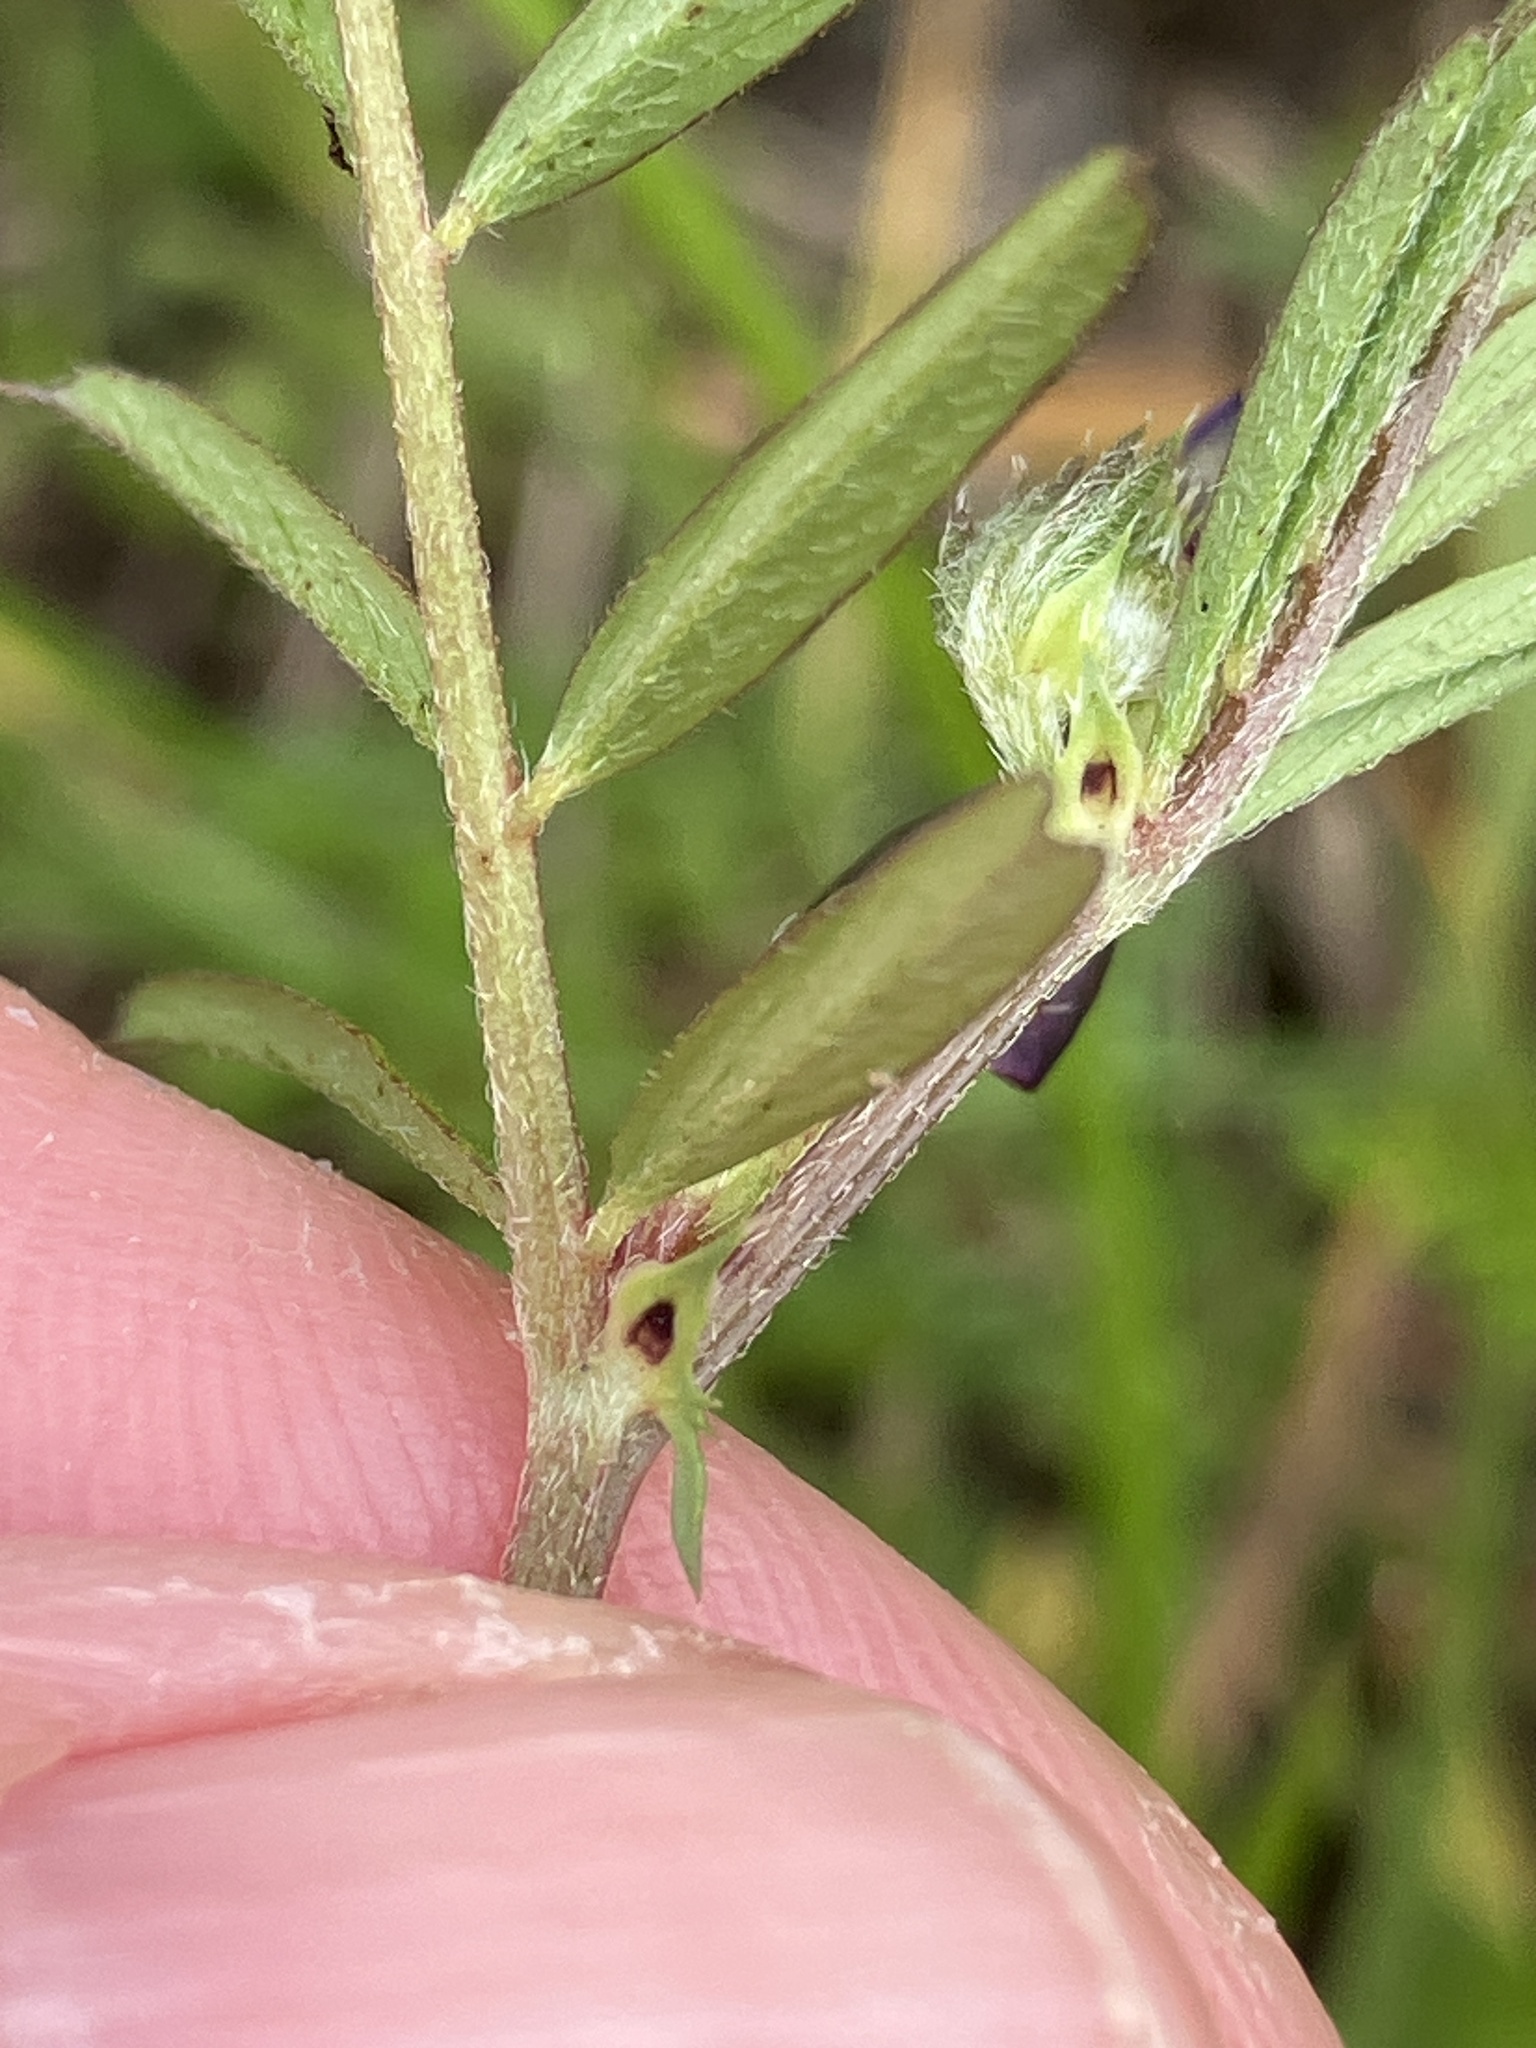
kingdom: Plantae
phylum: Tracheophyta
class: Magnoliopsida
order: Fabales
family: Fabaceae
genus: Vicia
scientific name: Vicia sativa
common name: Garden vetch
